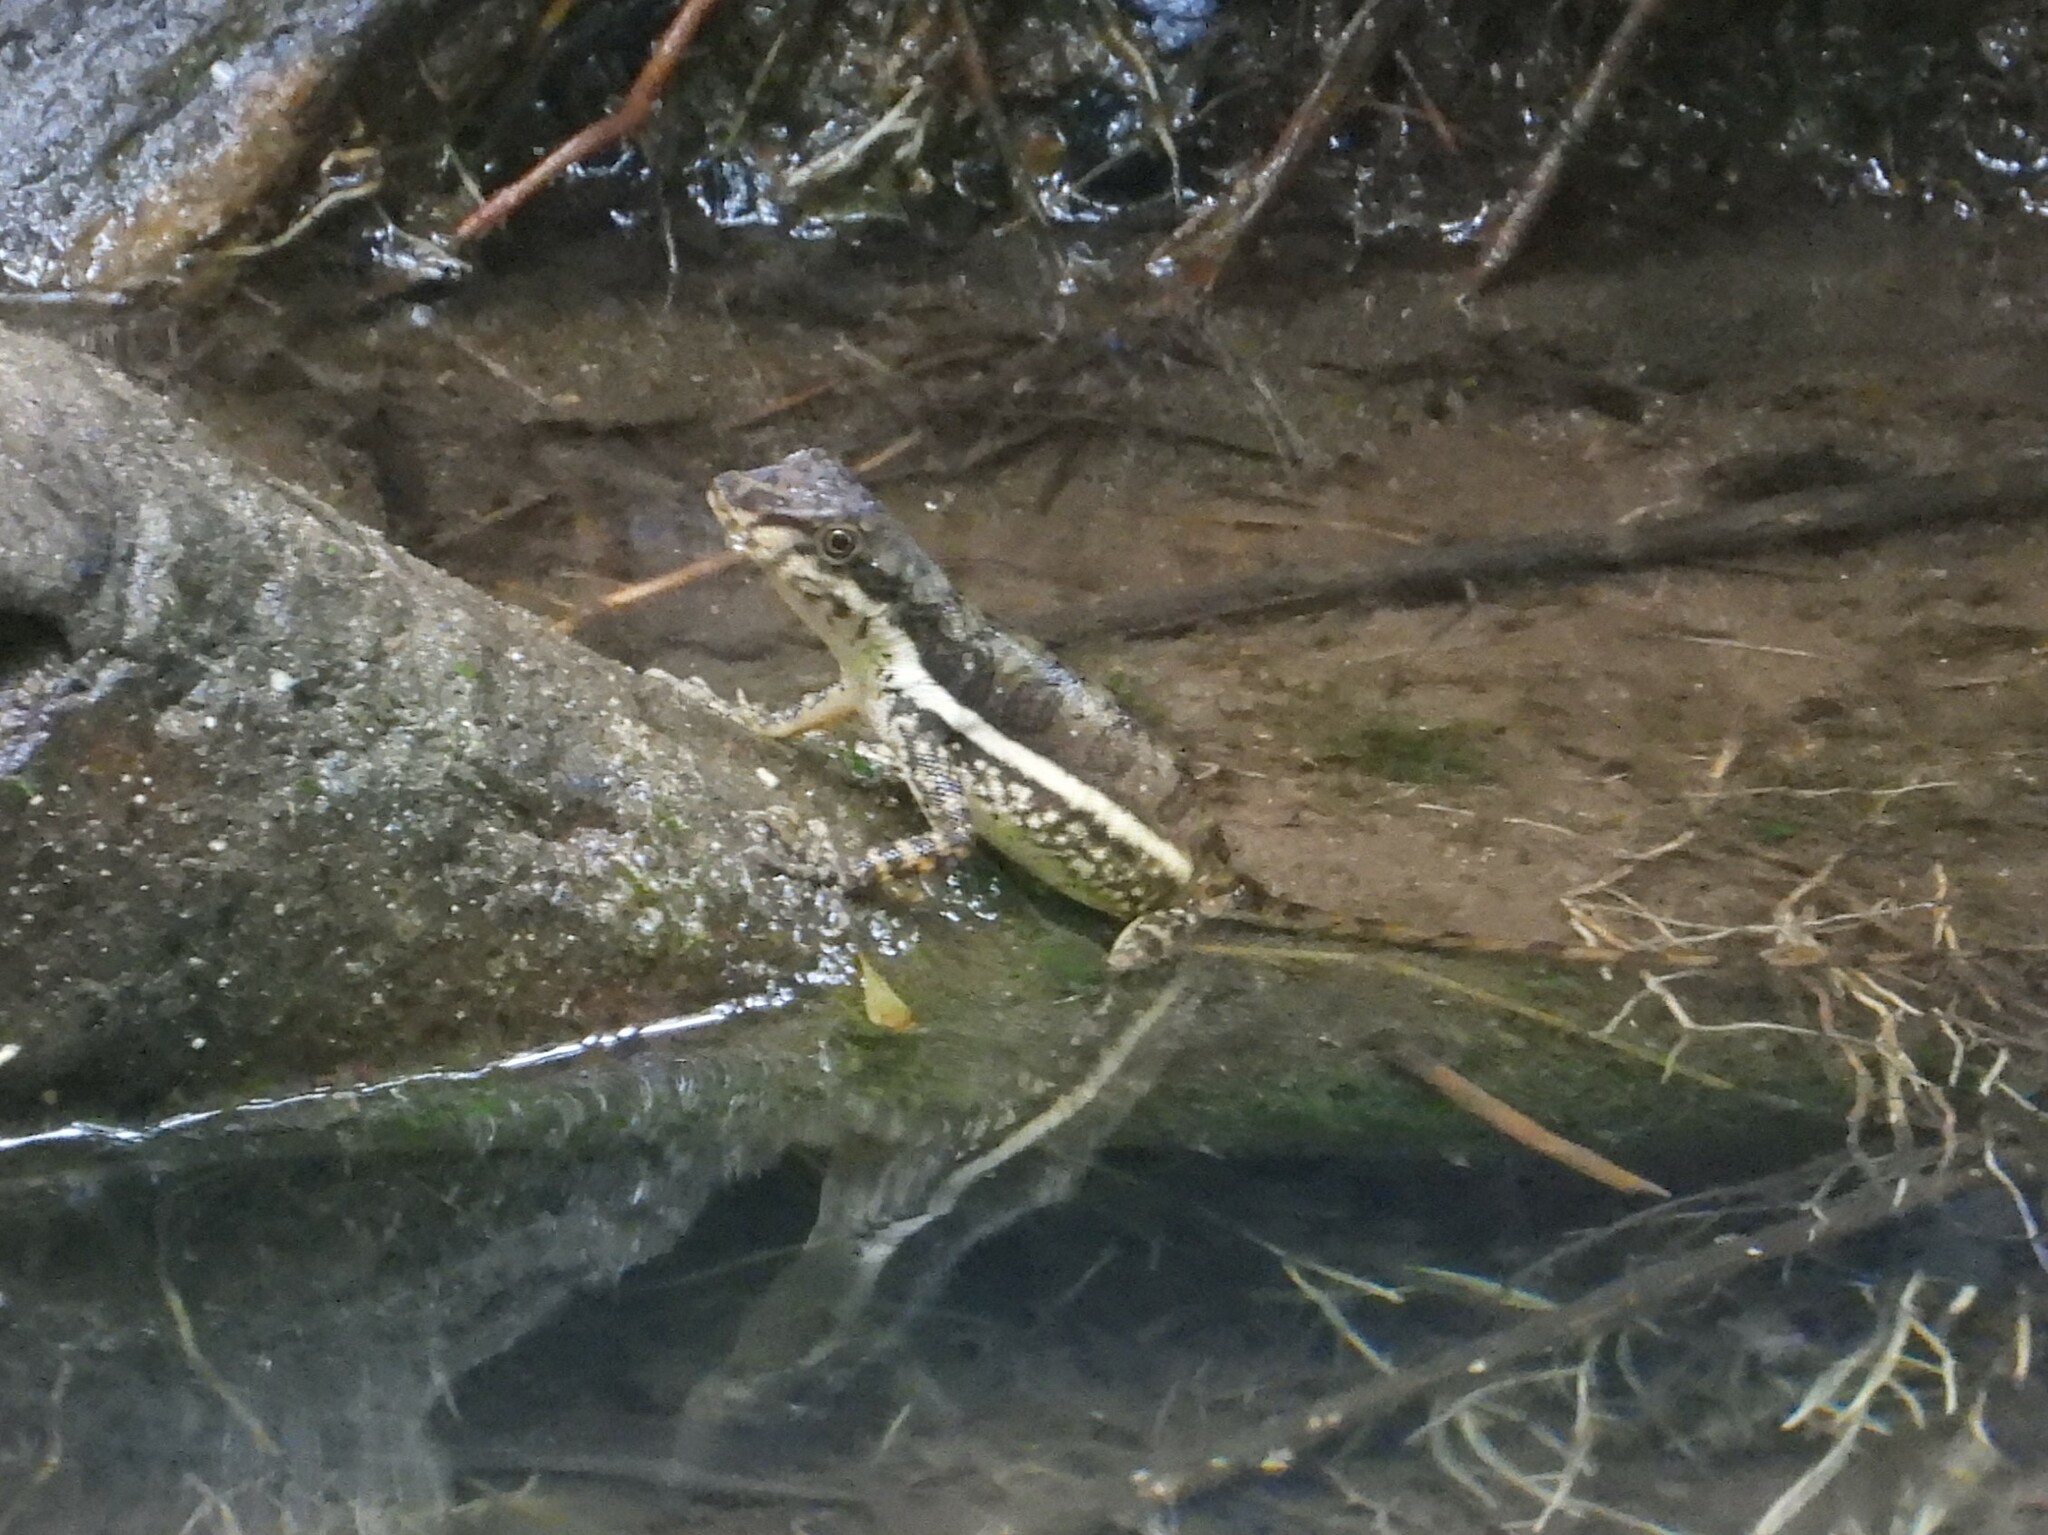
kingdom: Animalia
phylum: Chordata
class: Squamata
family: Dactyloidae
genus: Anolis
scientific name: Anolis oxylophus
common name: Stream anole
